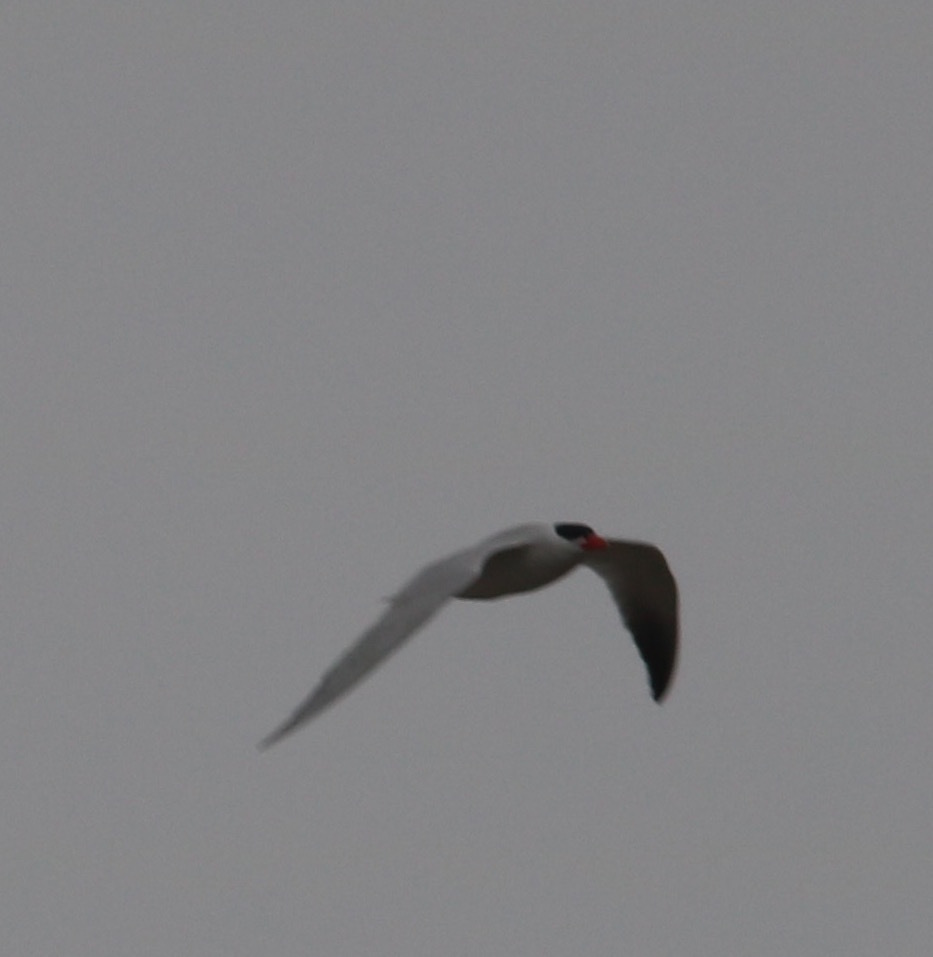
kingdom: Animalia
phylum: Chordata
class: Aves
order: Charadriiformes
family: Laridae
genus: Hydroprogne
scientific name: Hydroprogne caspia
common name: Caspian tern
